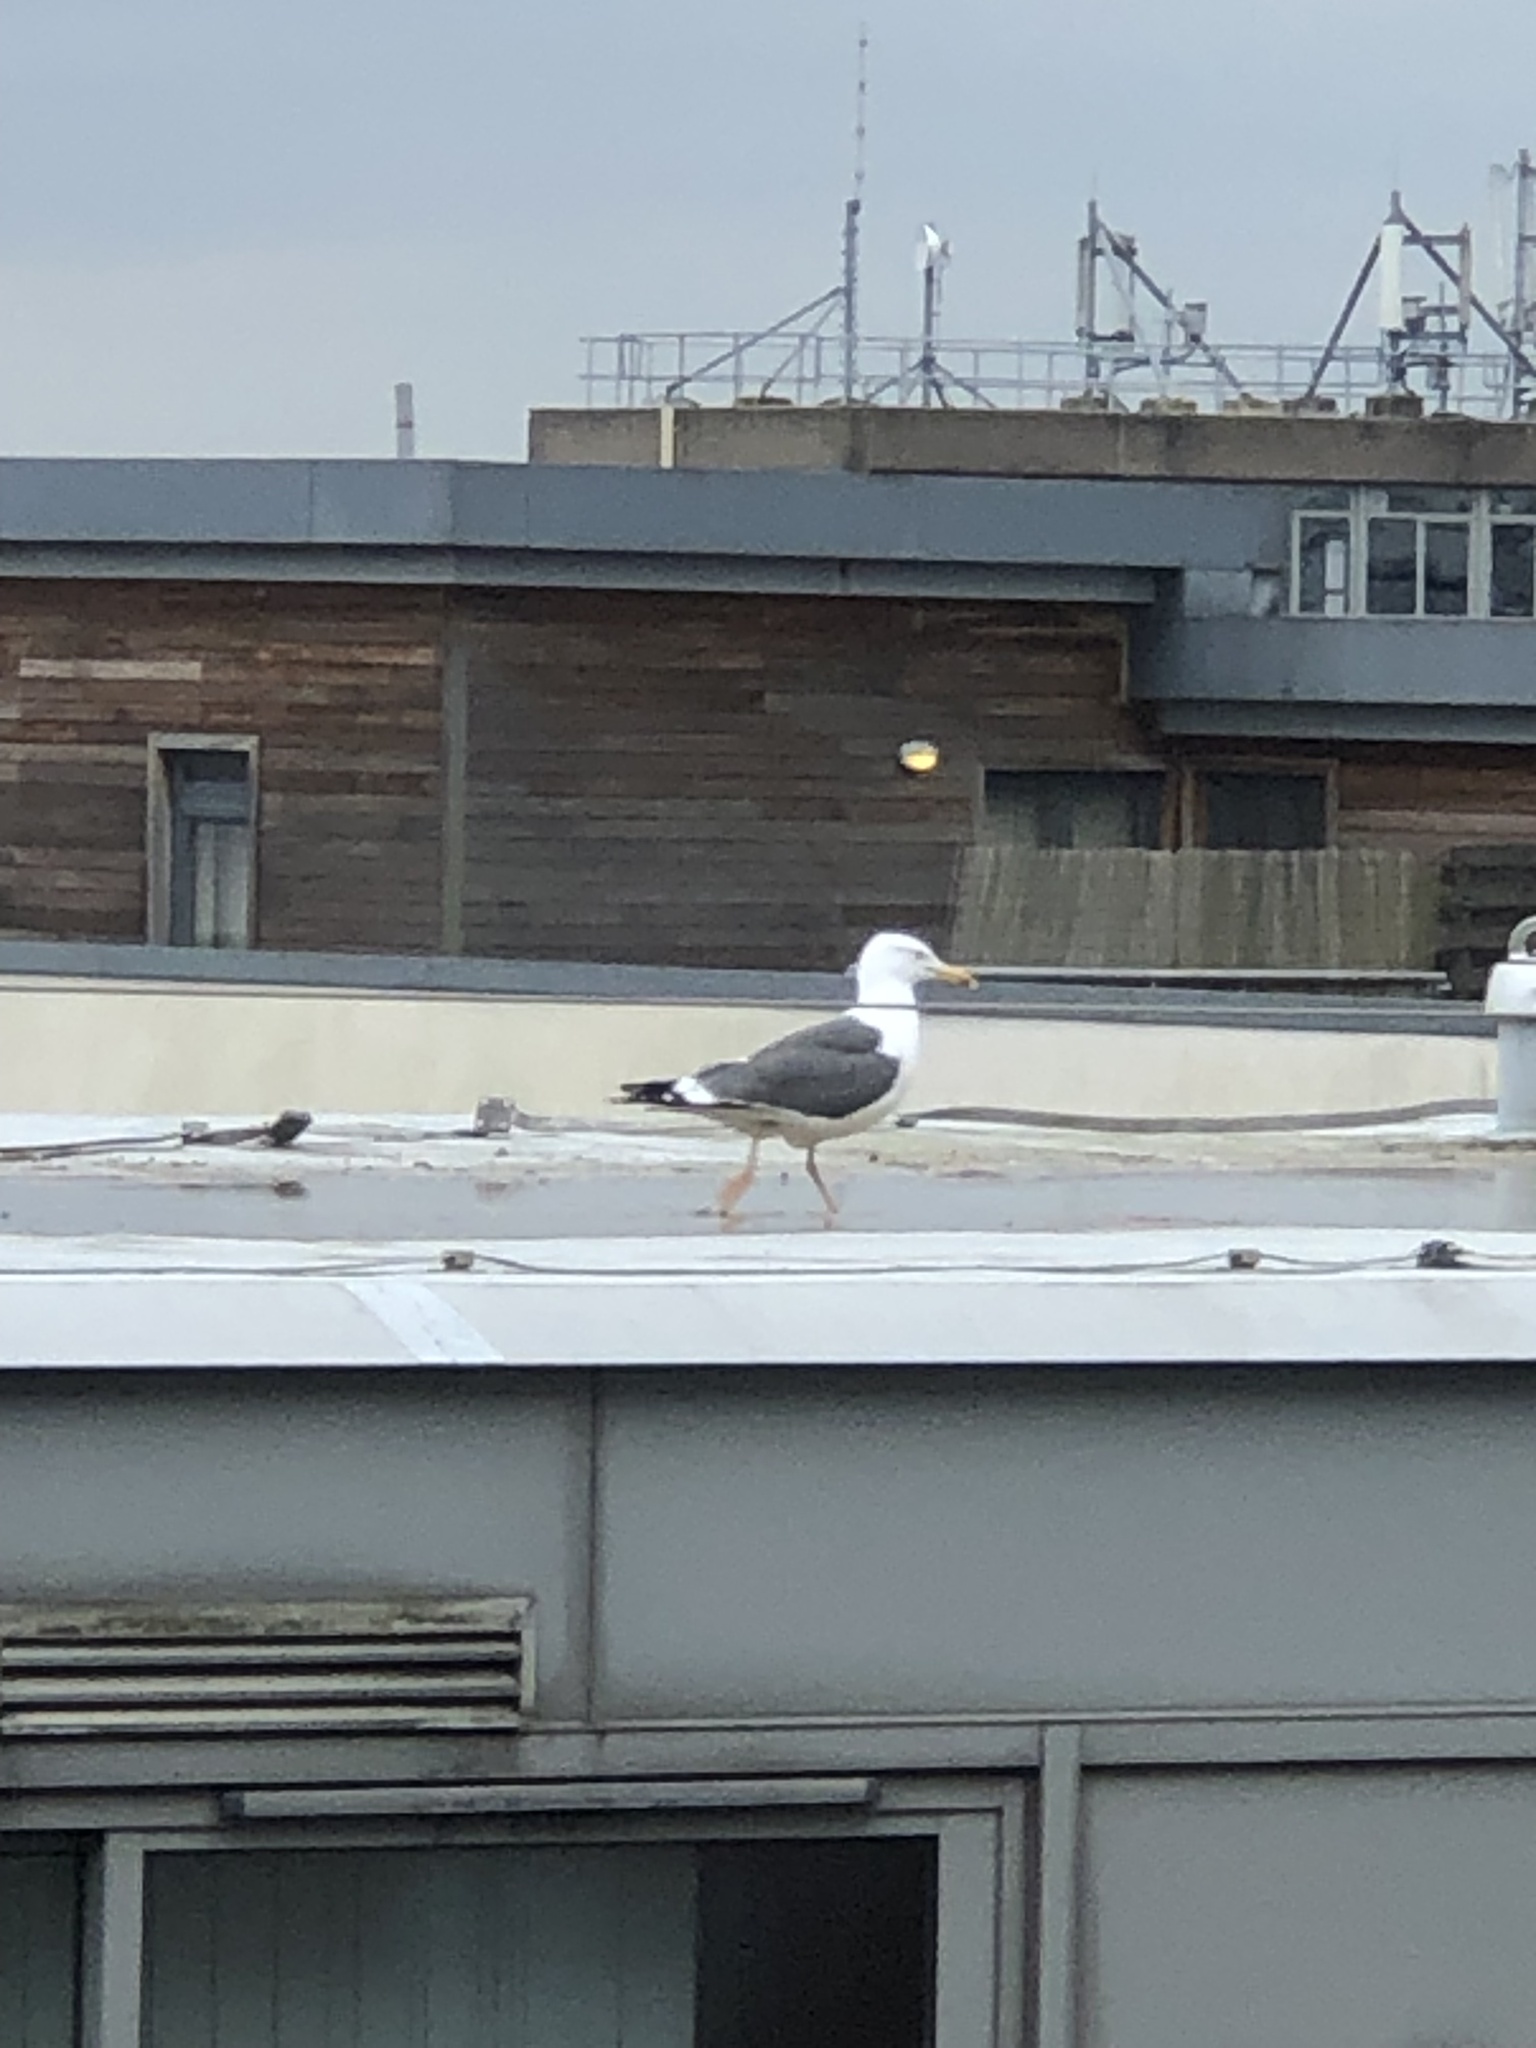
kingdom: Animalia
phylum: Chordata
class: Aves
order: Charadriiformes
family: Laridae
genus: Larus
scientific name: Larus fuscus
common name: Lesser black-backed gull
